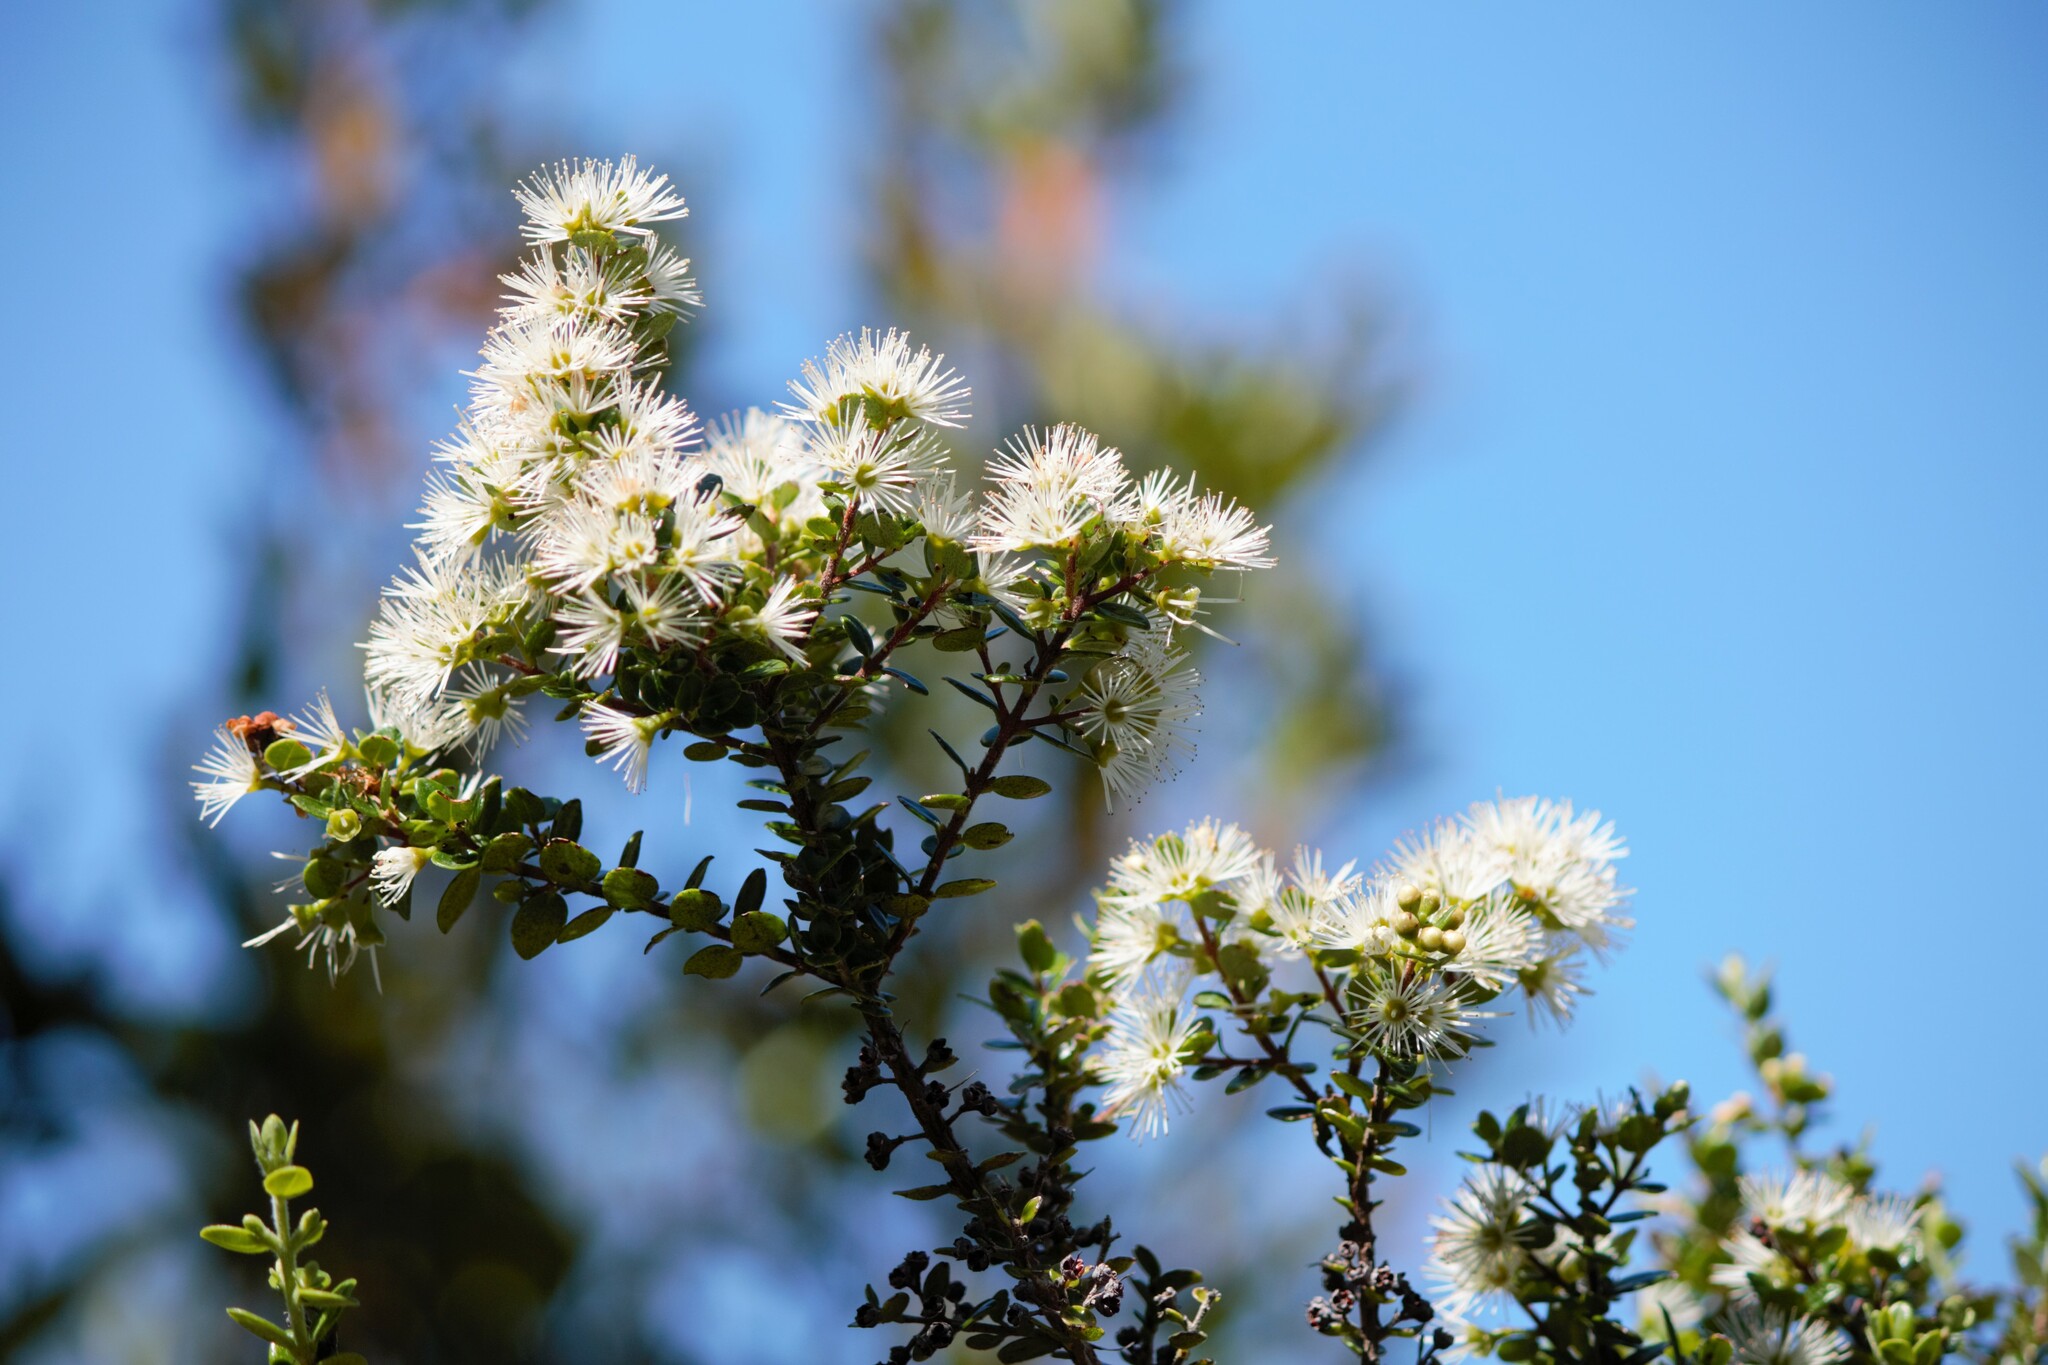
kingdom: Plantae
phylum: Tracheophyta
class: Magnoliopsida
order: Myrtales
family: Myrtaceae
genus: Metrosideros
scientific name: Metrosideros perforata
